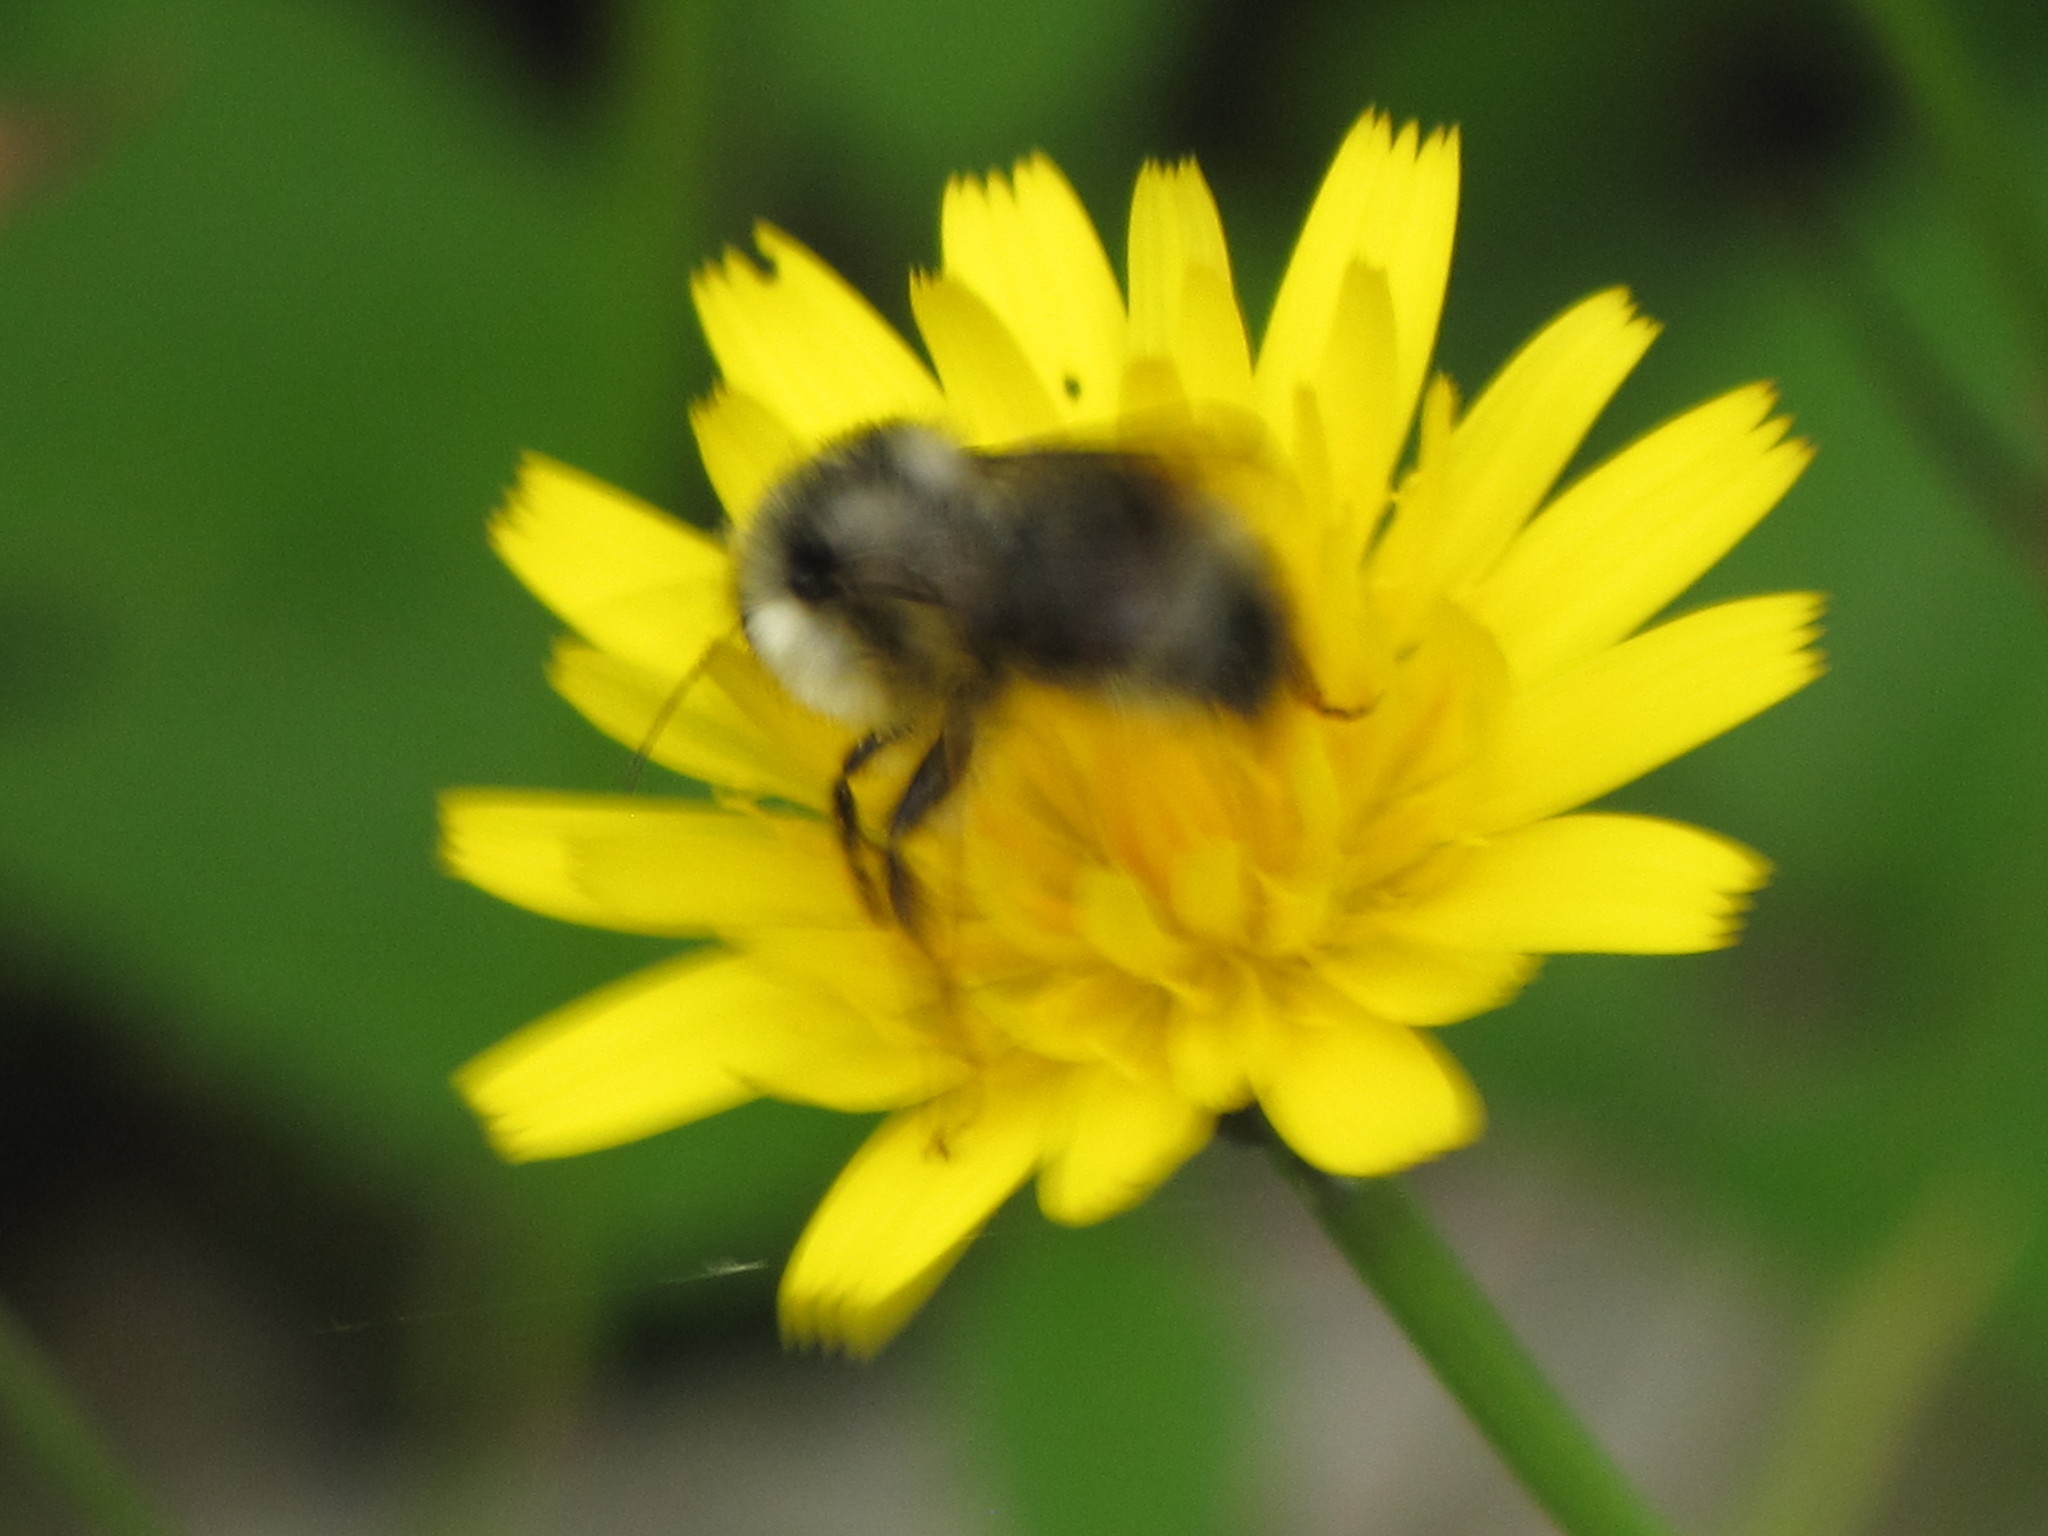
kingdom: Animalia
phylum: Arthropoda
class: Insecta
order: Hymenoptera
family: Apidae
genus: Bombus
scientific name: Bombus vancouverensis
